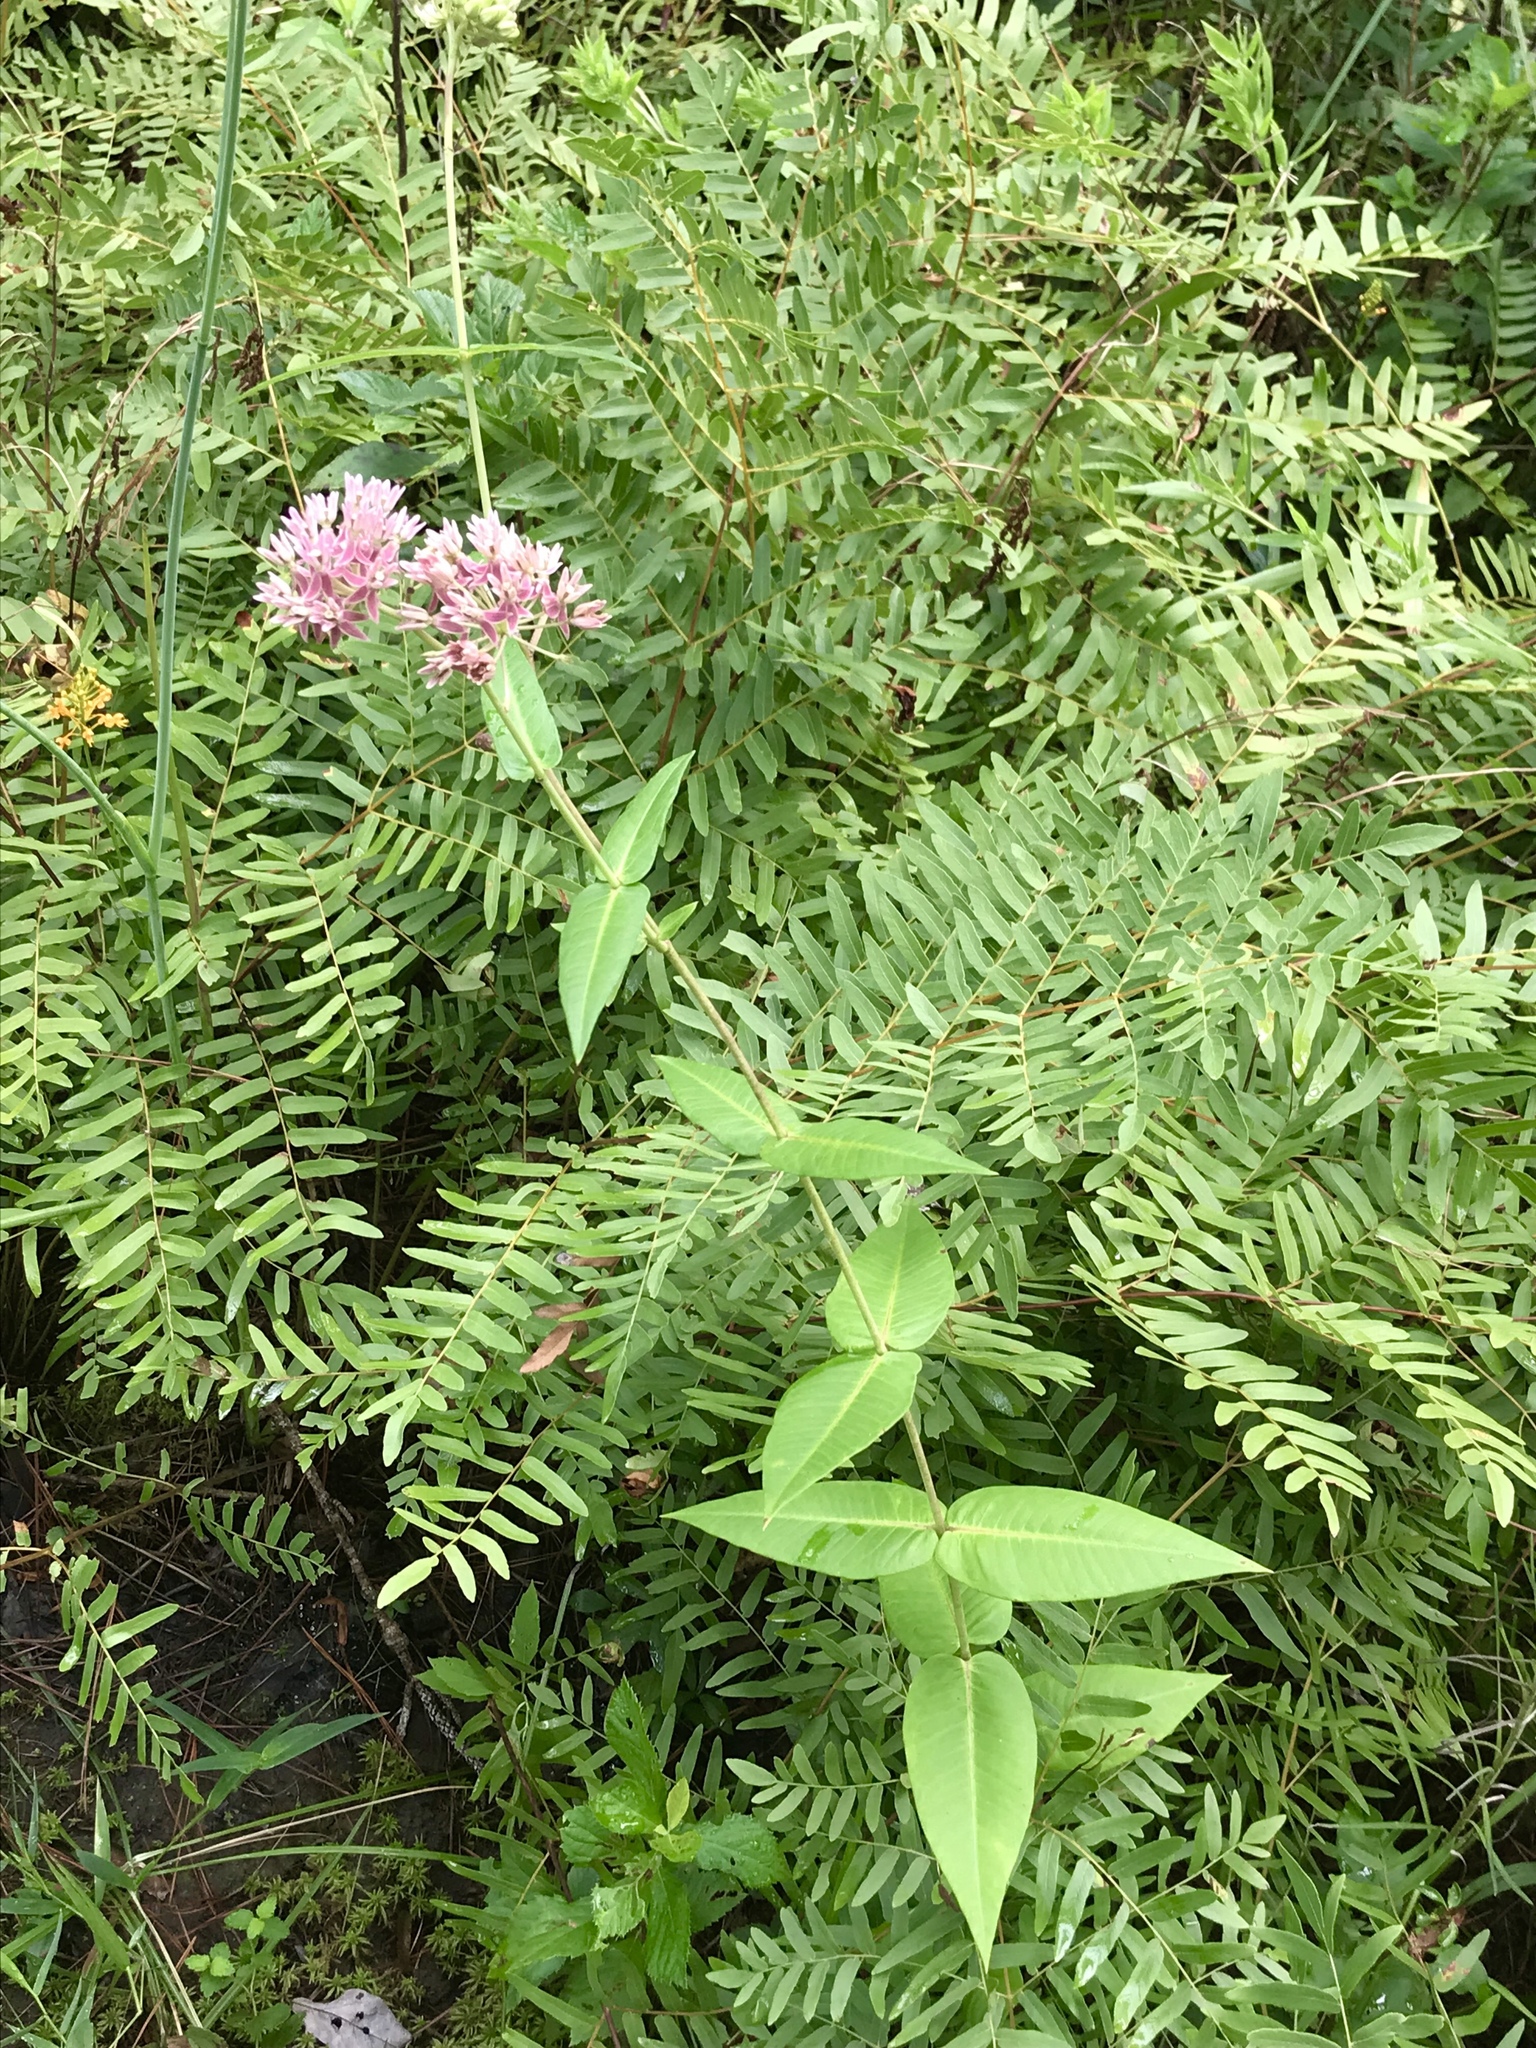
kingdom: Plantae
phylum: Tracheophyta
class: Magnoliopsida
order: Gentianales
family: Apocynaceae
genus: Asclepias
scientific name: Asclepias rubra
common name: Red milkweed
